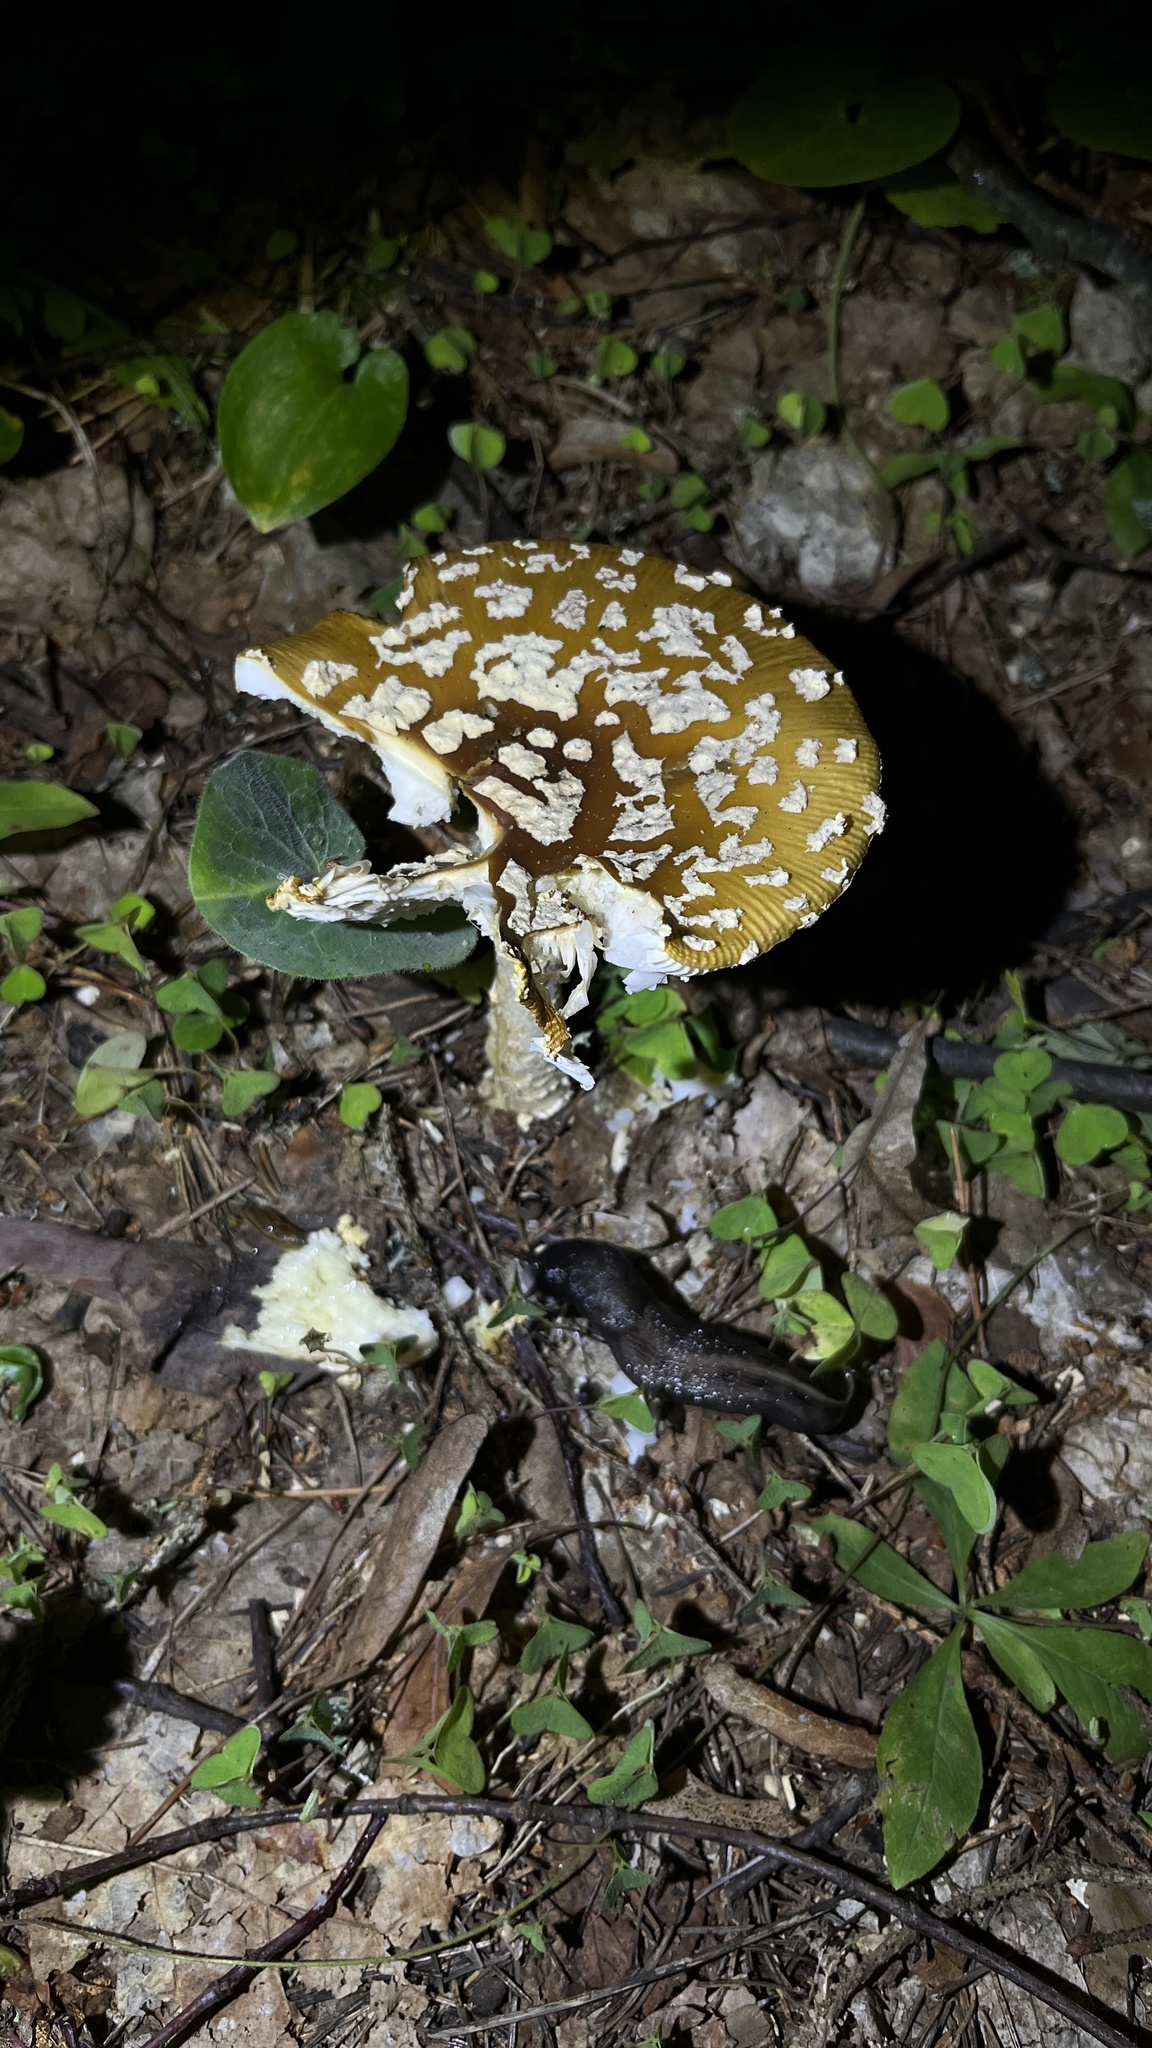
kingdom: Fungi
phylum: Basidiomycota
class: Agaricomycetes
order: Agaricales
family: Amanitaceae
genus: Amanita
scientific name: Amanita pantherina
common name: Panthercap
